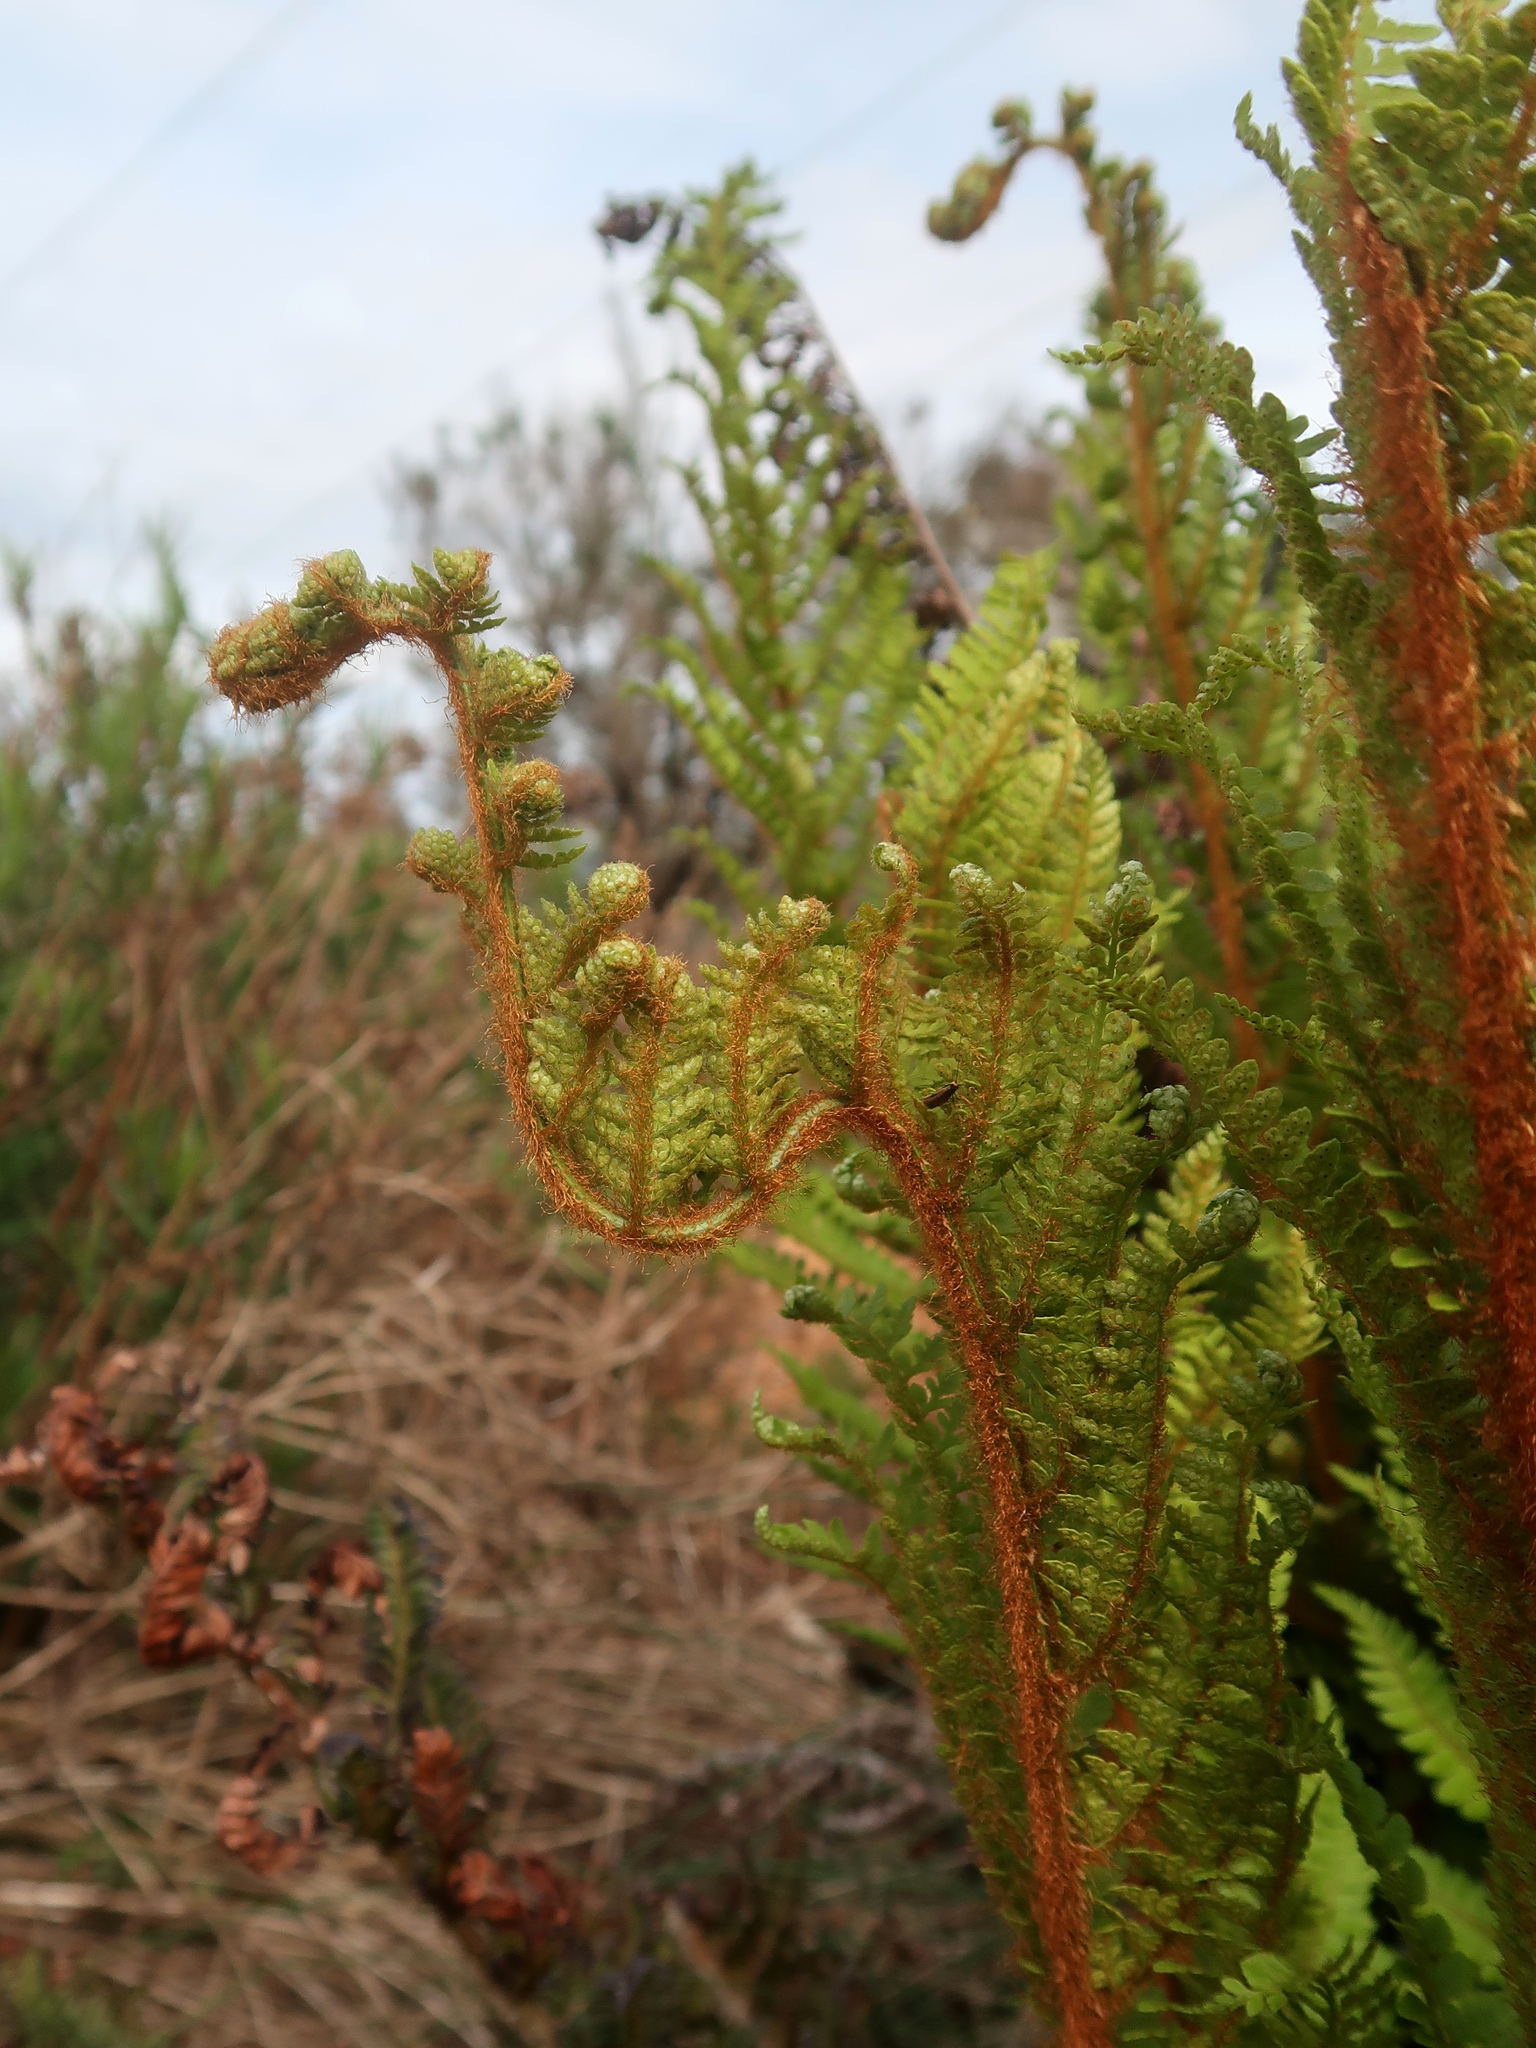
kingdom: Plantae
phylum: Tracheophyta
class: Polypodiopsida
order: Polypodiales
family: Dryopteridaceae
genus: Polystichum
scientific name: Polystichum proliferum
